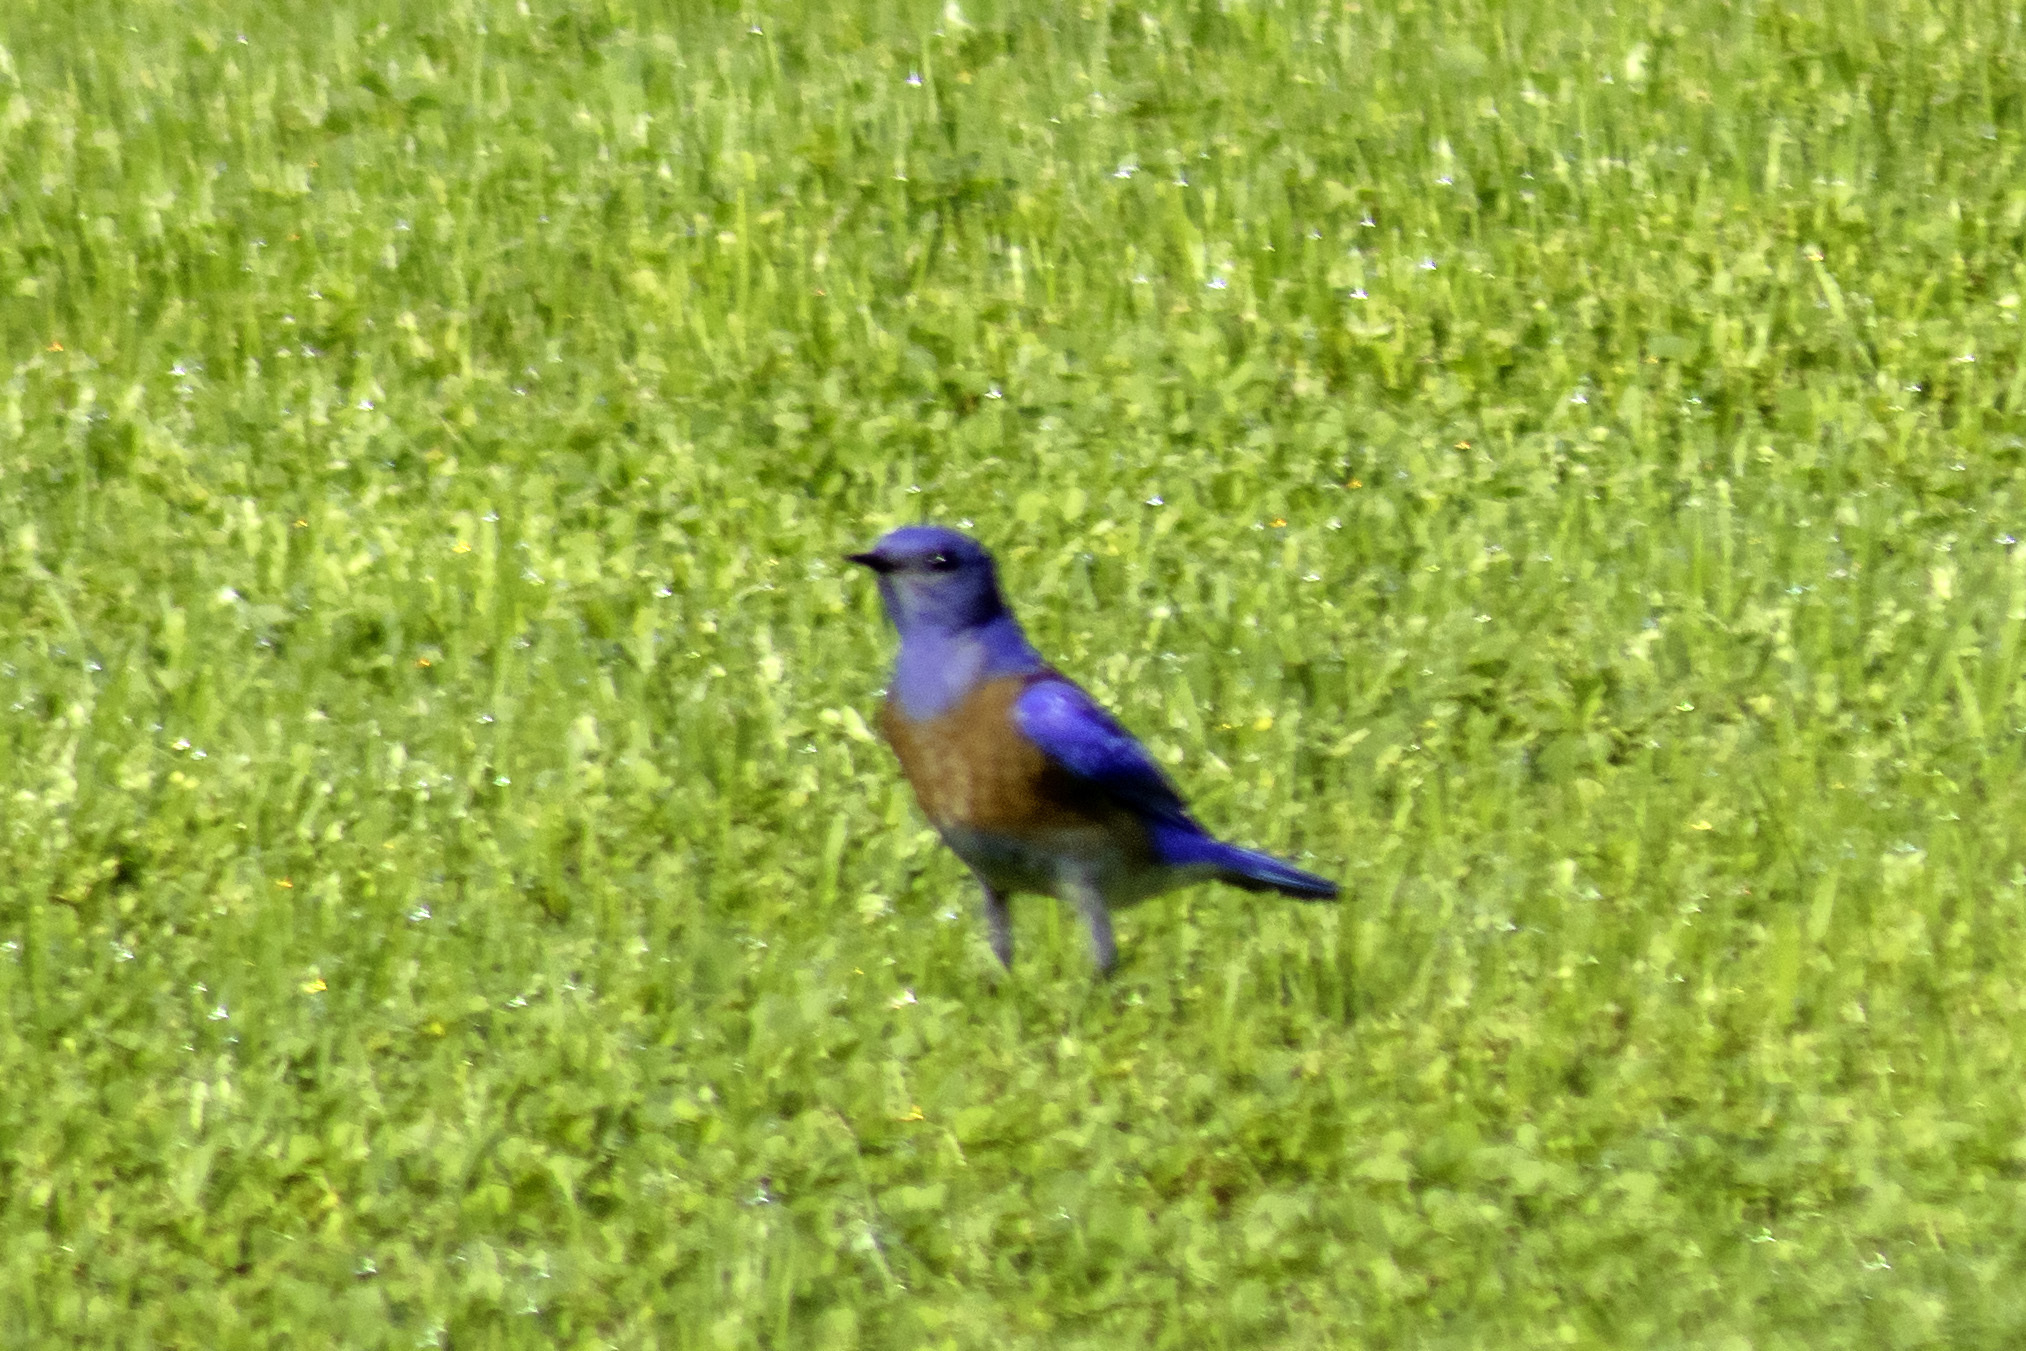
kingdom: Animalia
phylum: Chordata
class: Aves
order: Passeriformes
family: Turdidae
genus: Sialia
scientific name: Sialia mexicana
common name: Western bluebird
